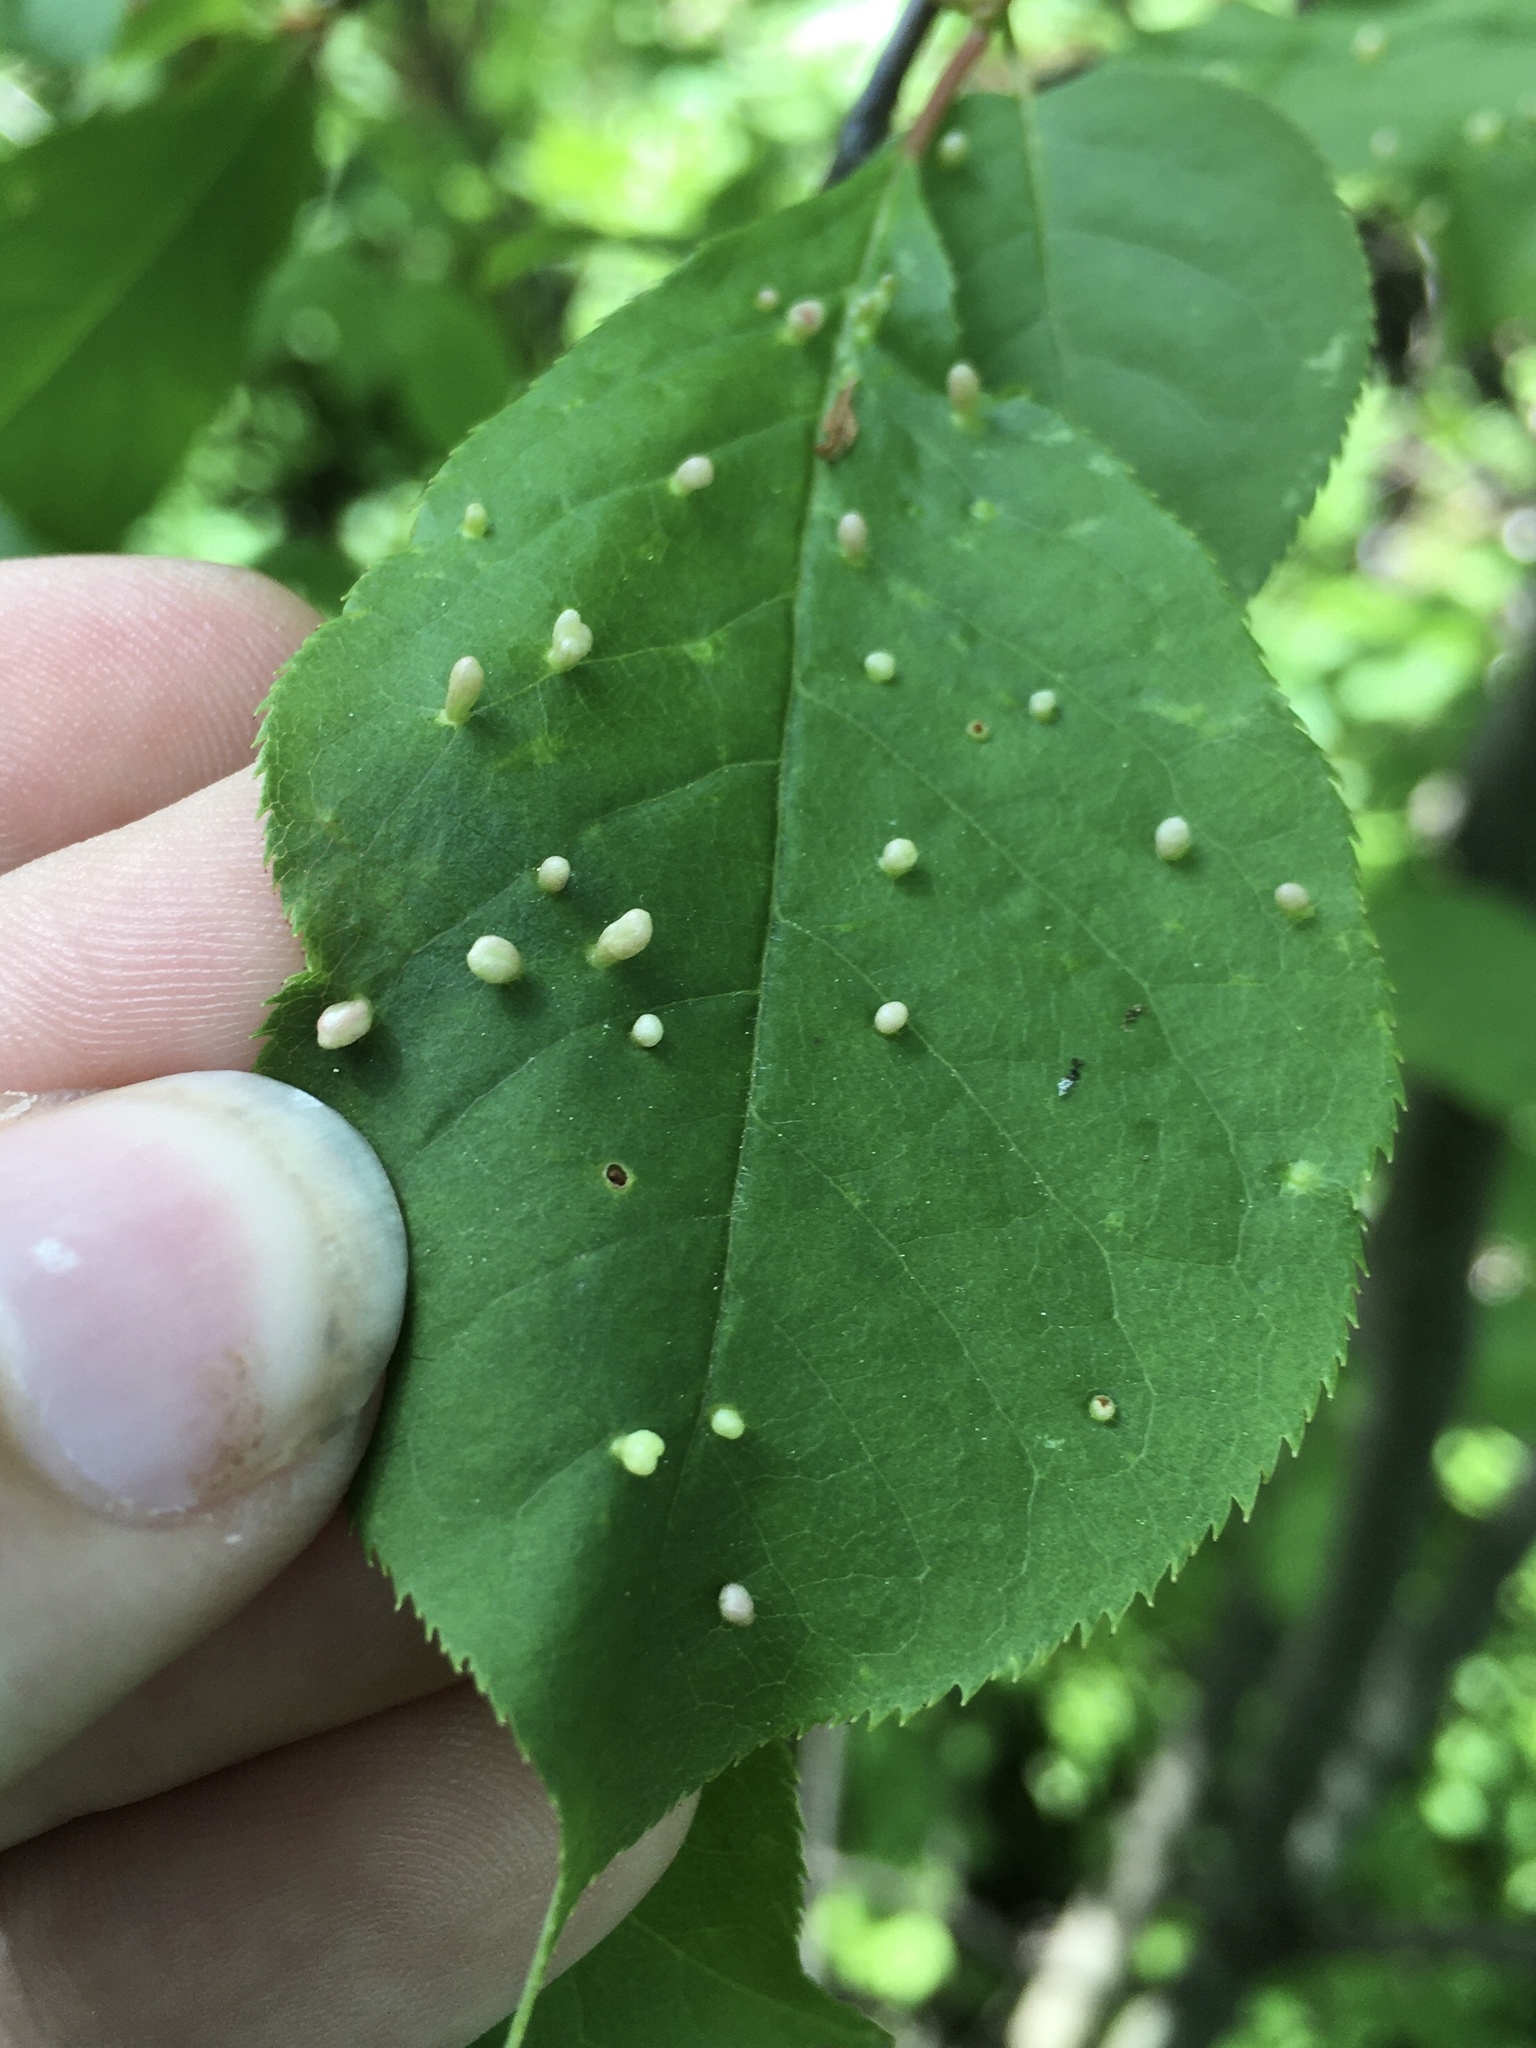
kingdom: Animalia
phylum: Arthropoda
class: Arachnida
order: Trombidiformes
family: Eriophyidae
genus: Eriophyes
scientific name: Eriophyes emarginatae
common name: Plum leaf gall mite
